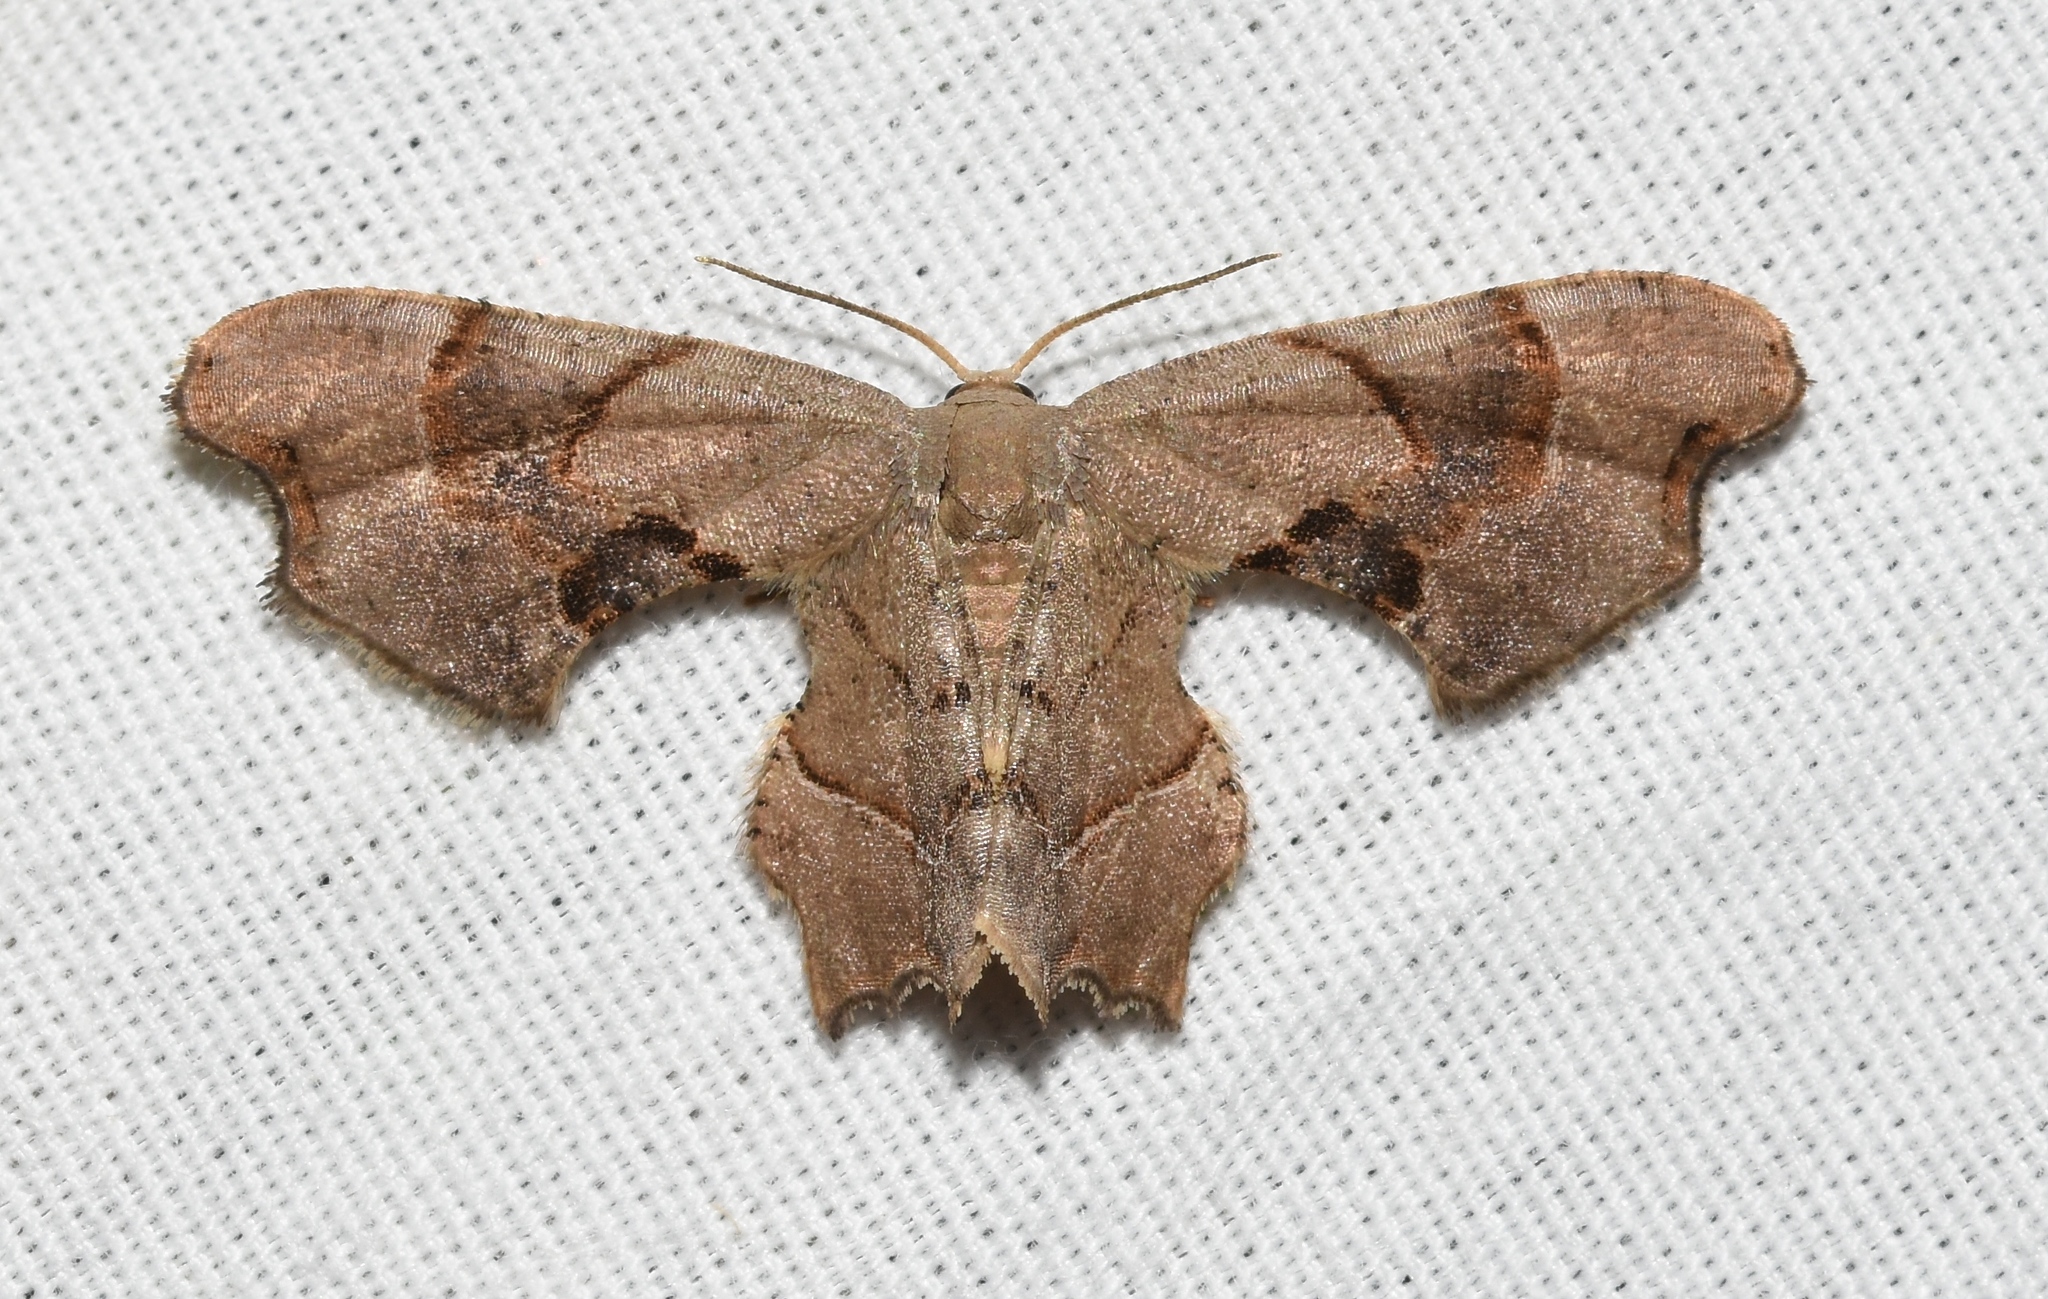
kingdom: Animalia
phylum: Arthropoda
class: Insecta
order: Lepidoptera
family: Uraniidae
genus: Epiplema
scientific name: Epiplema Calledapteryx dryopterata
